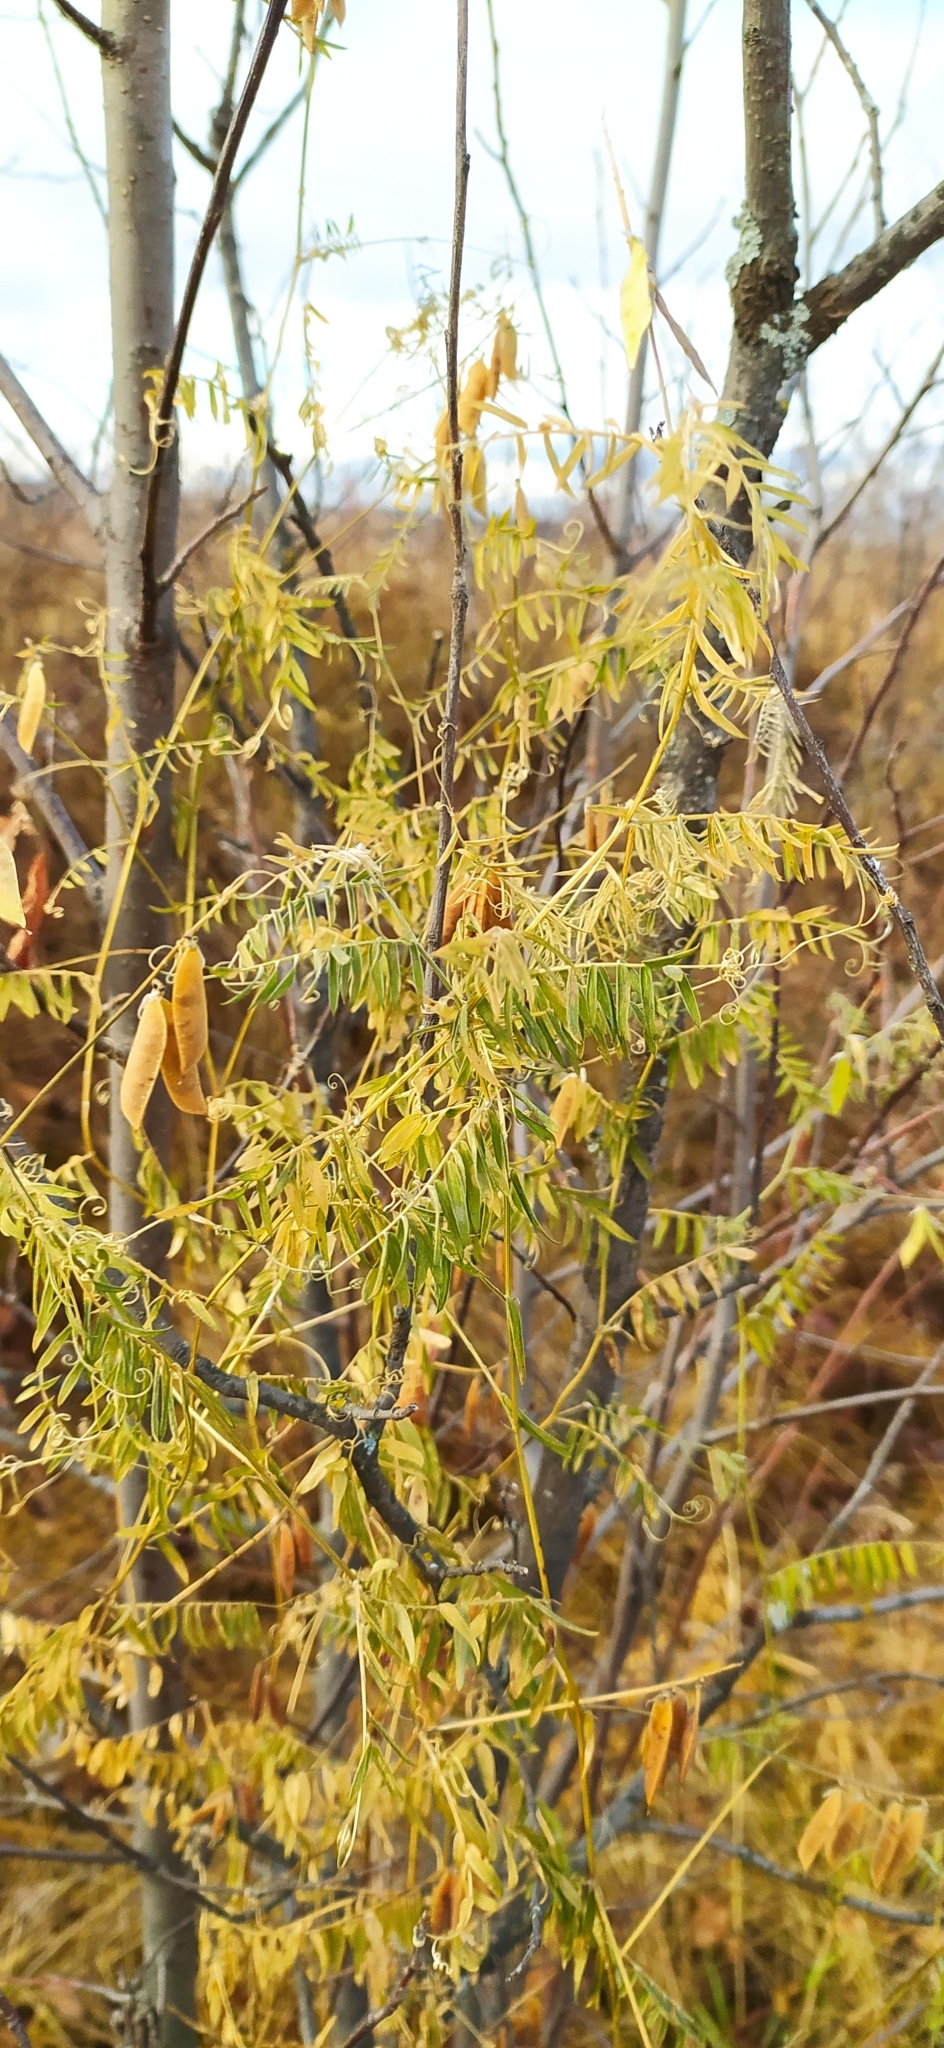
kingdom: Plantae
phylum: Tracheophyta
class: Magnoliopsida
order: Fabales
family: Fabaceae
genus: Vicia
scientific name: Vicia cracca
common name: Bird vetch
